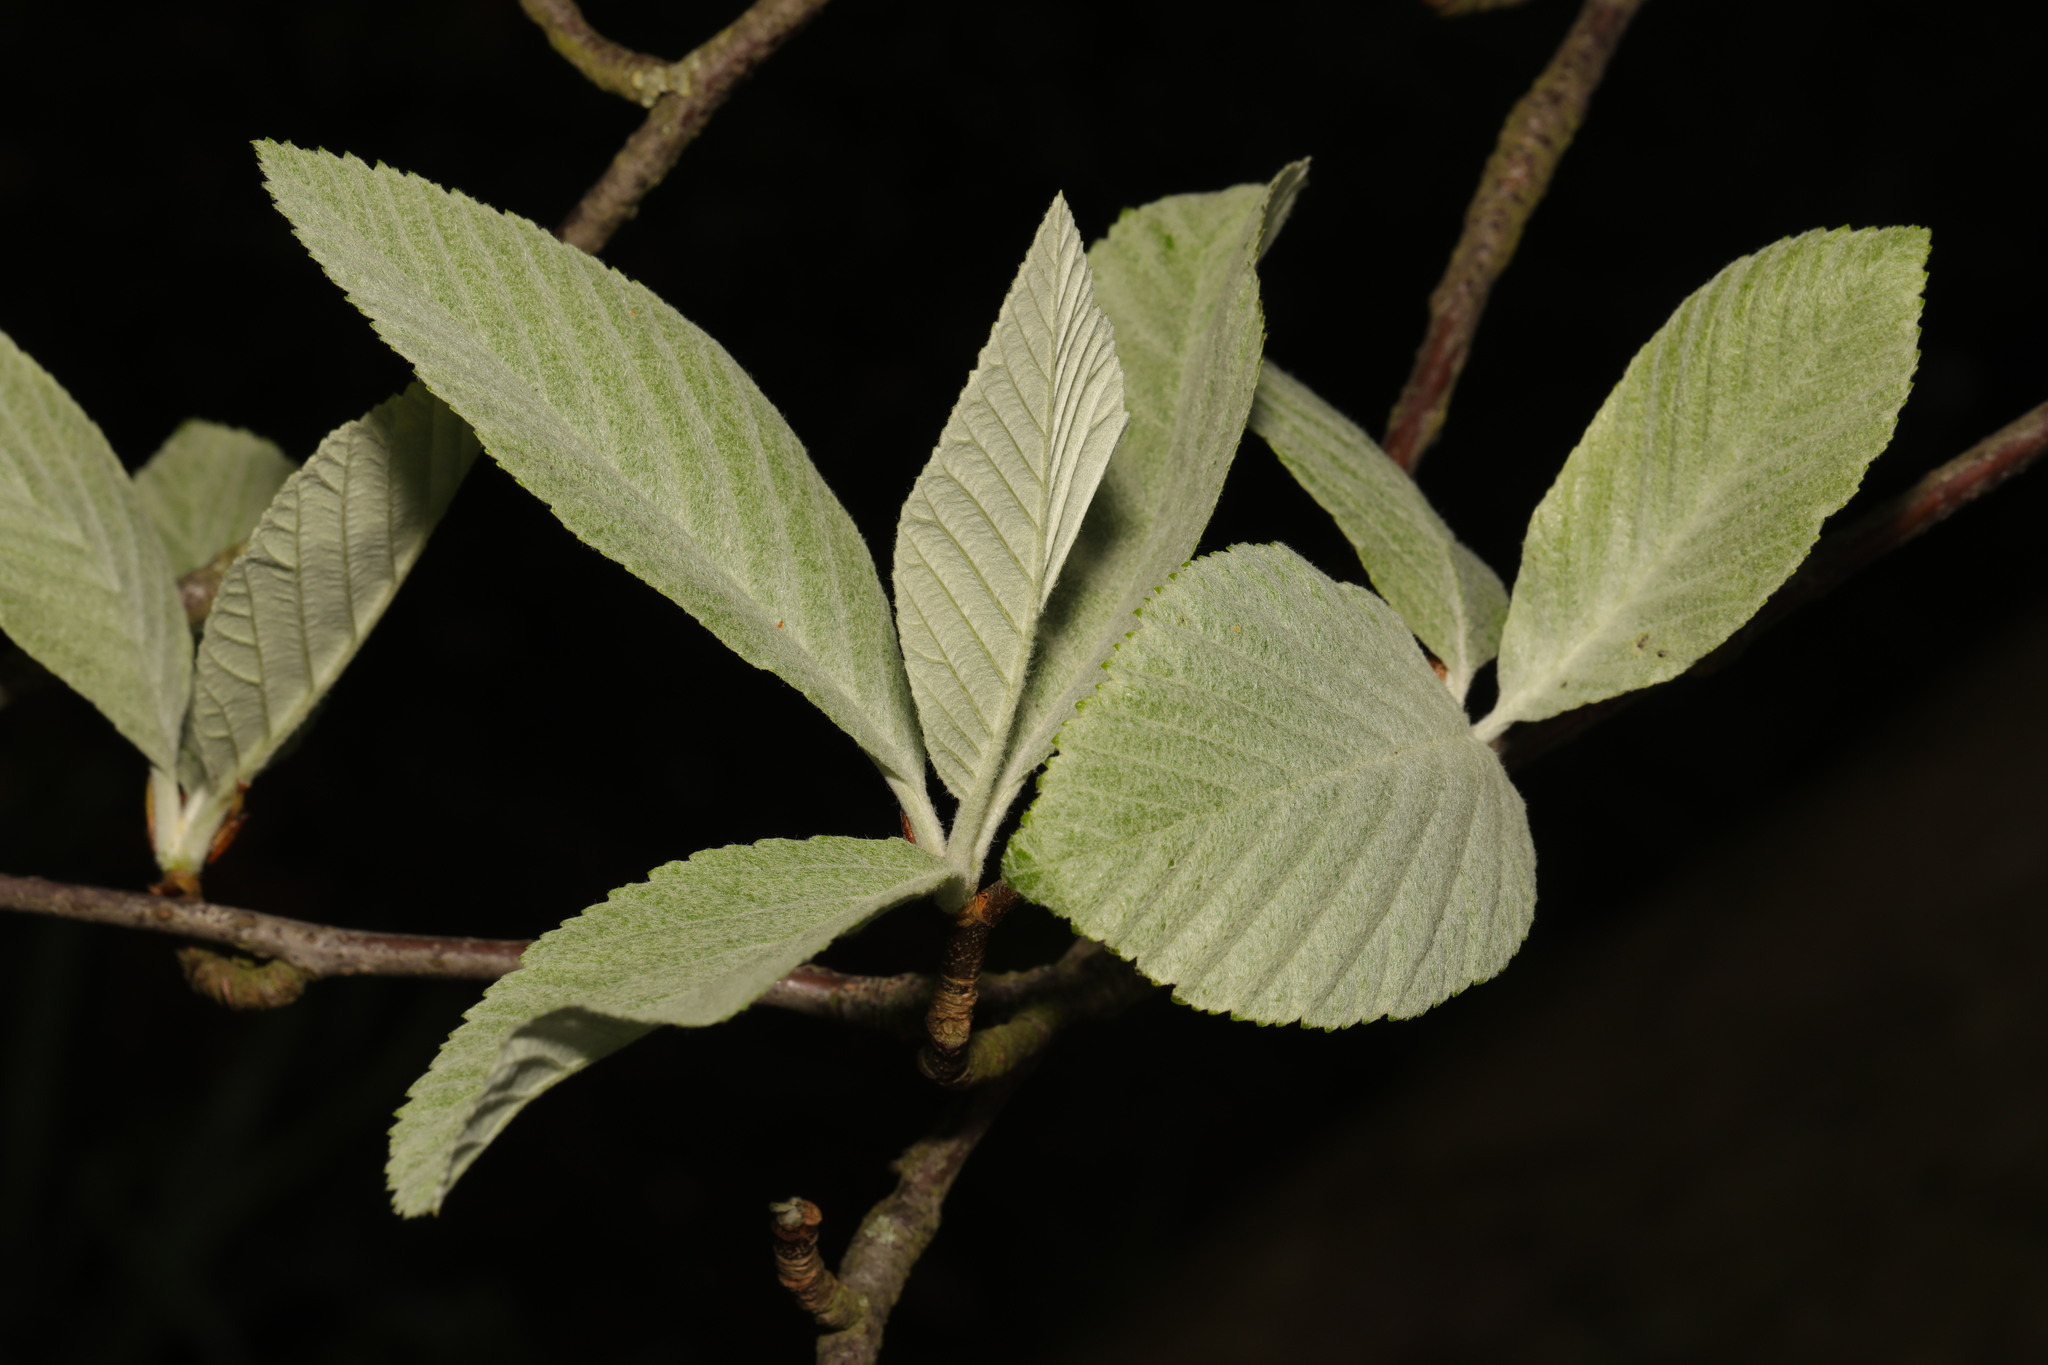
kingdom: Plantae
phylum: Tracheophyta
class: Magnoliopsida
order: Rosales
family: Rosaceae
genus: Aria
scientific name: Aria edulis
